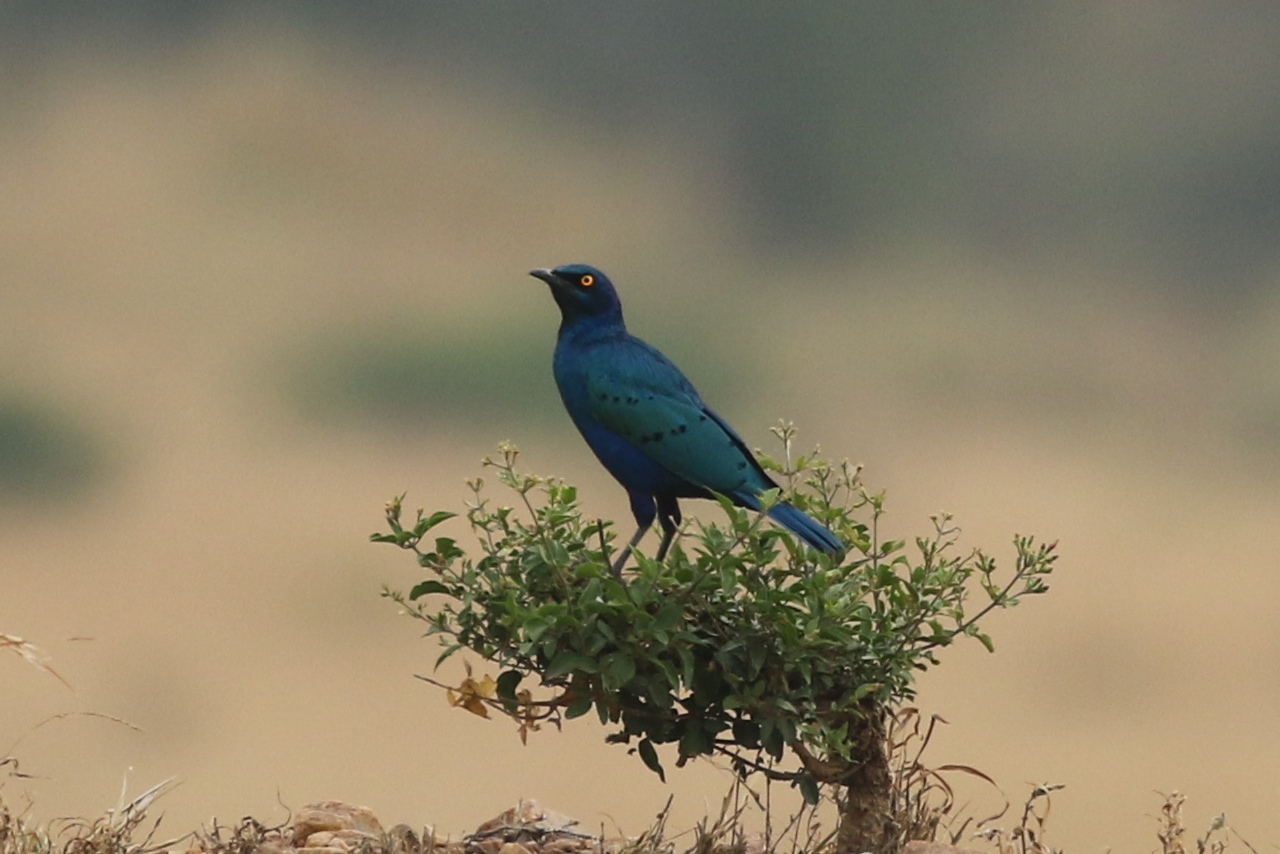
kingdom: Animalia
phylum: Chordata
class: Aves
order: Passeriformes
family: Sturnidae
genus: Lamprotornis
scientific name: Lamprotornis chalybaeus
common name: Greater blue-eared starling
